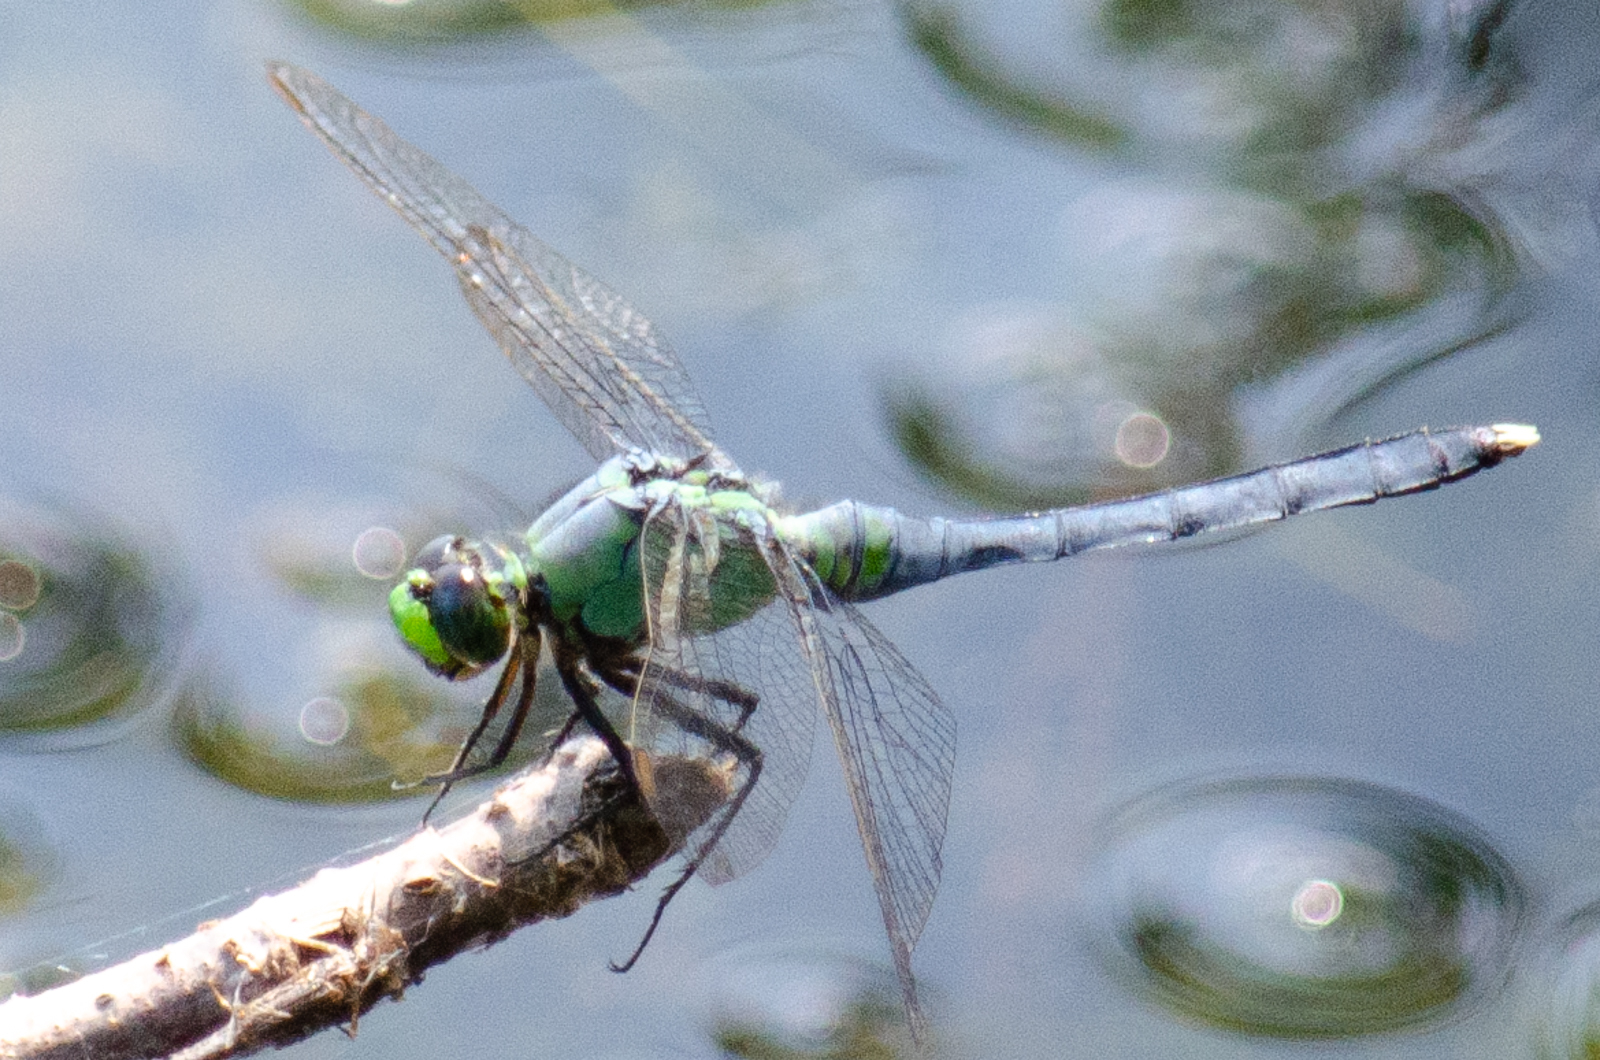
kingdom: Animalia
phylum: Arthropoda
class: Insecta
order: Odonata
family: Libellulidae
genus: Erythemis
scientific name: Erythemis simplicicollis
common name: Eastern pondhawk
